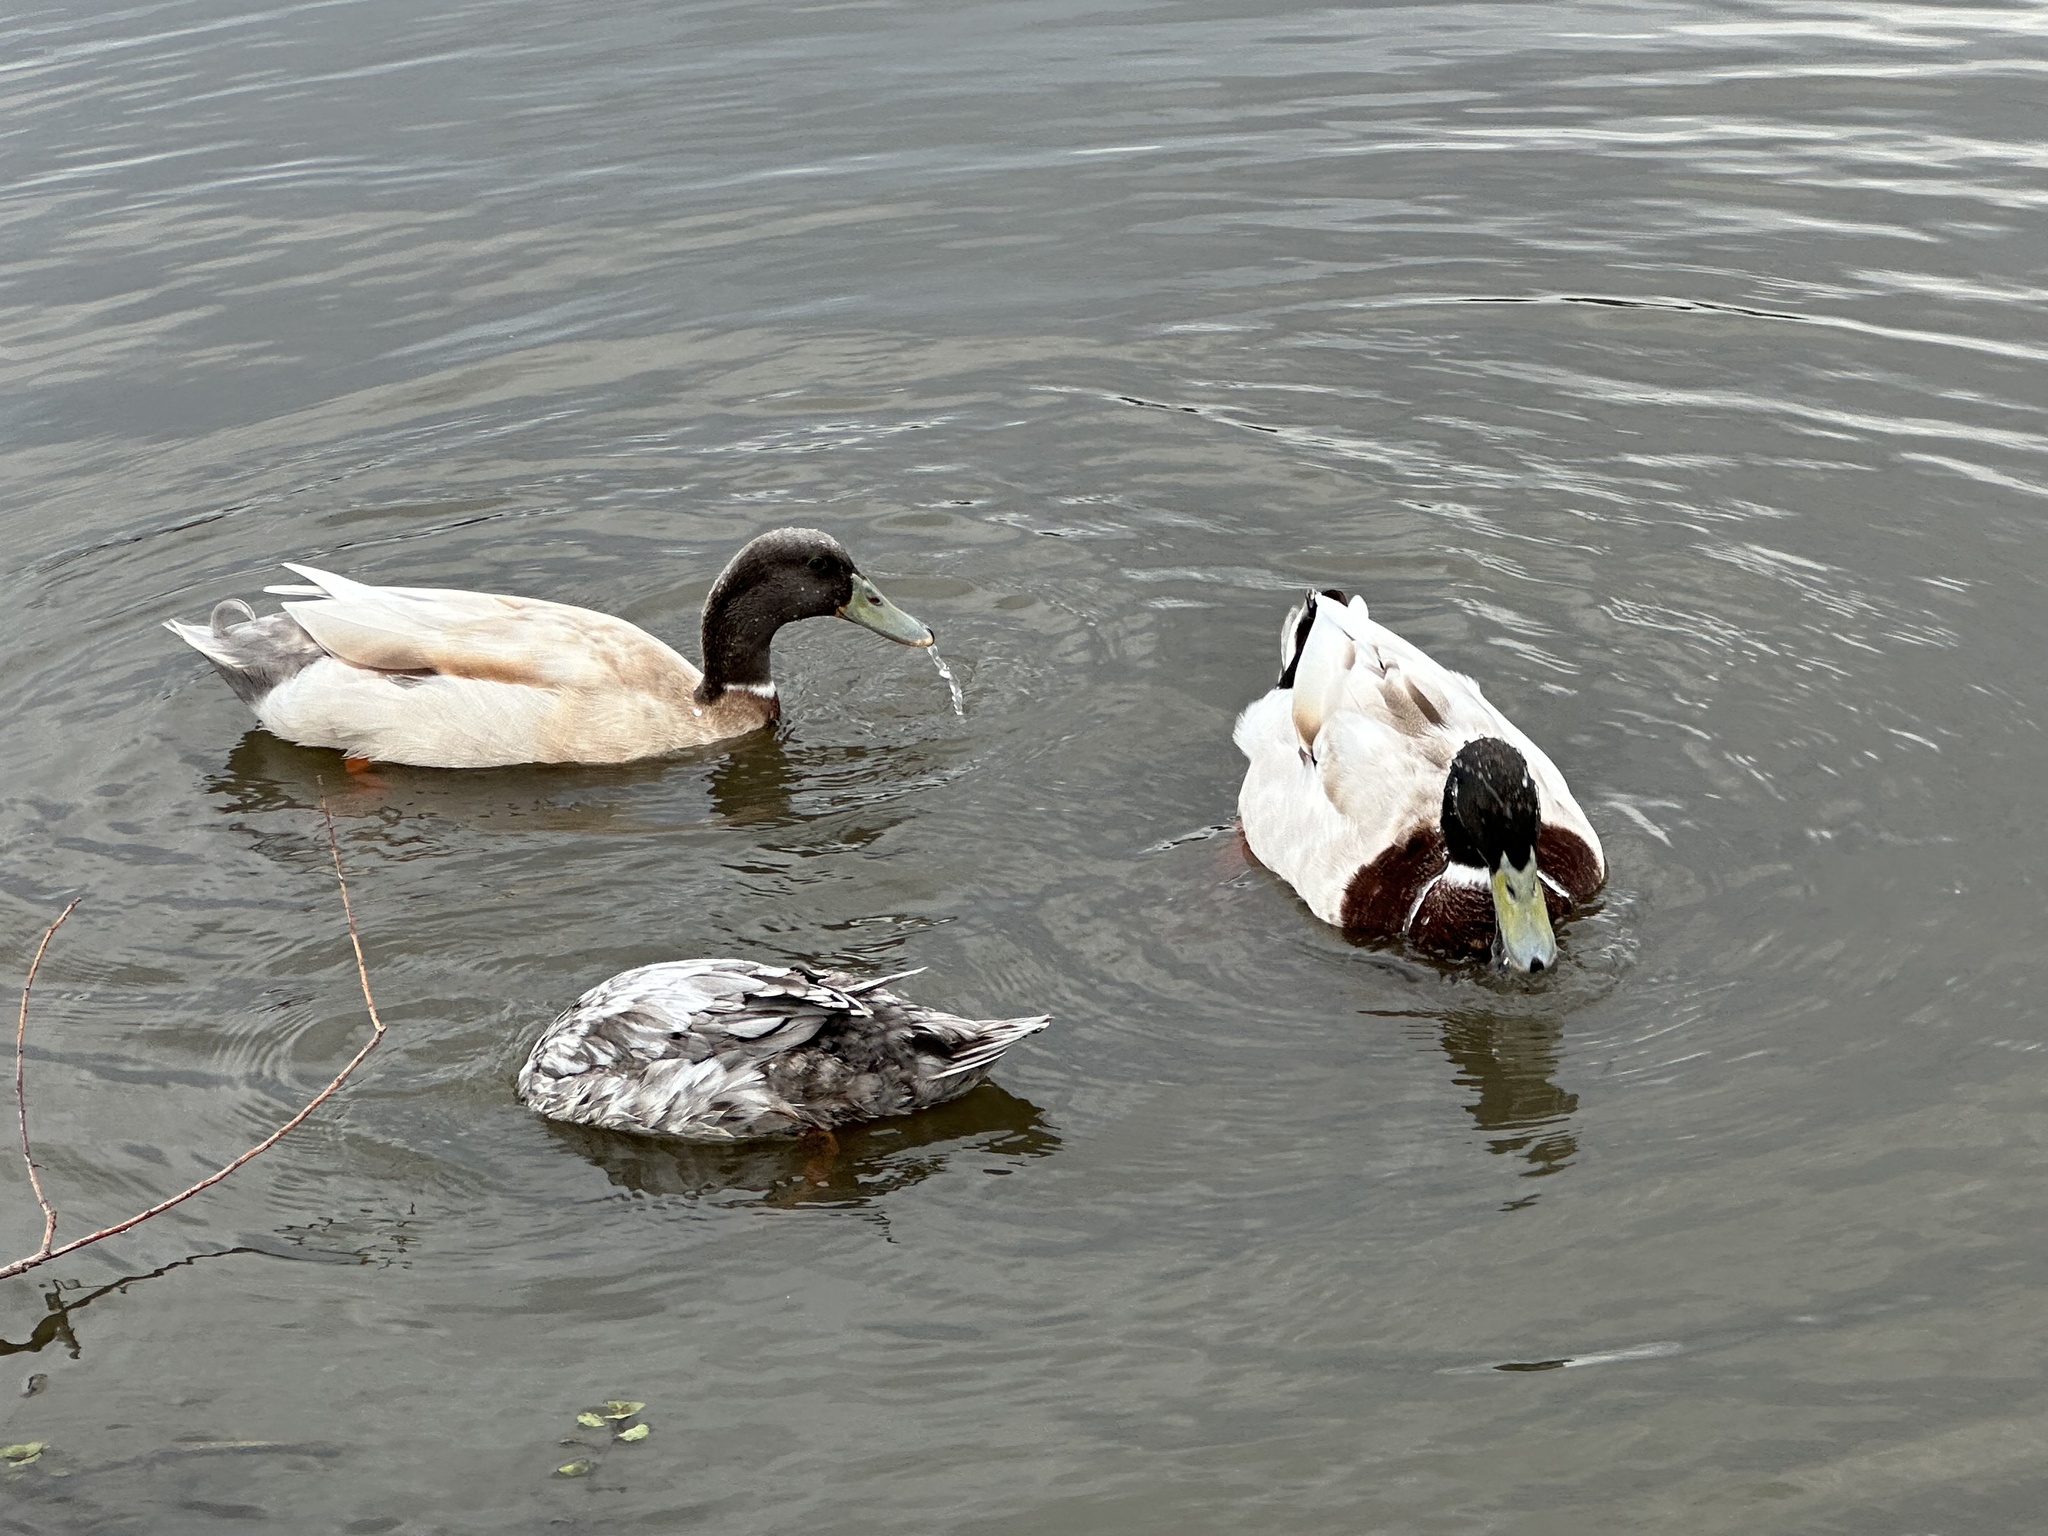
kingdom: Animalia
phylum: Chordata
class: Aves
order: Anseriformes
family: Anatidae
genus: Anas
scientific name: Anas platyrhynchos
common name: Mallard
